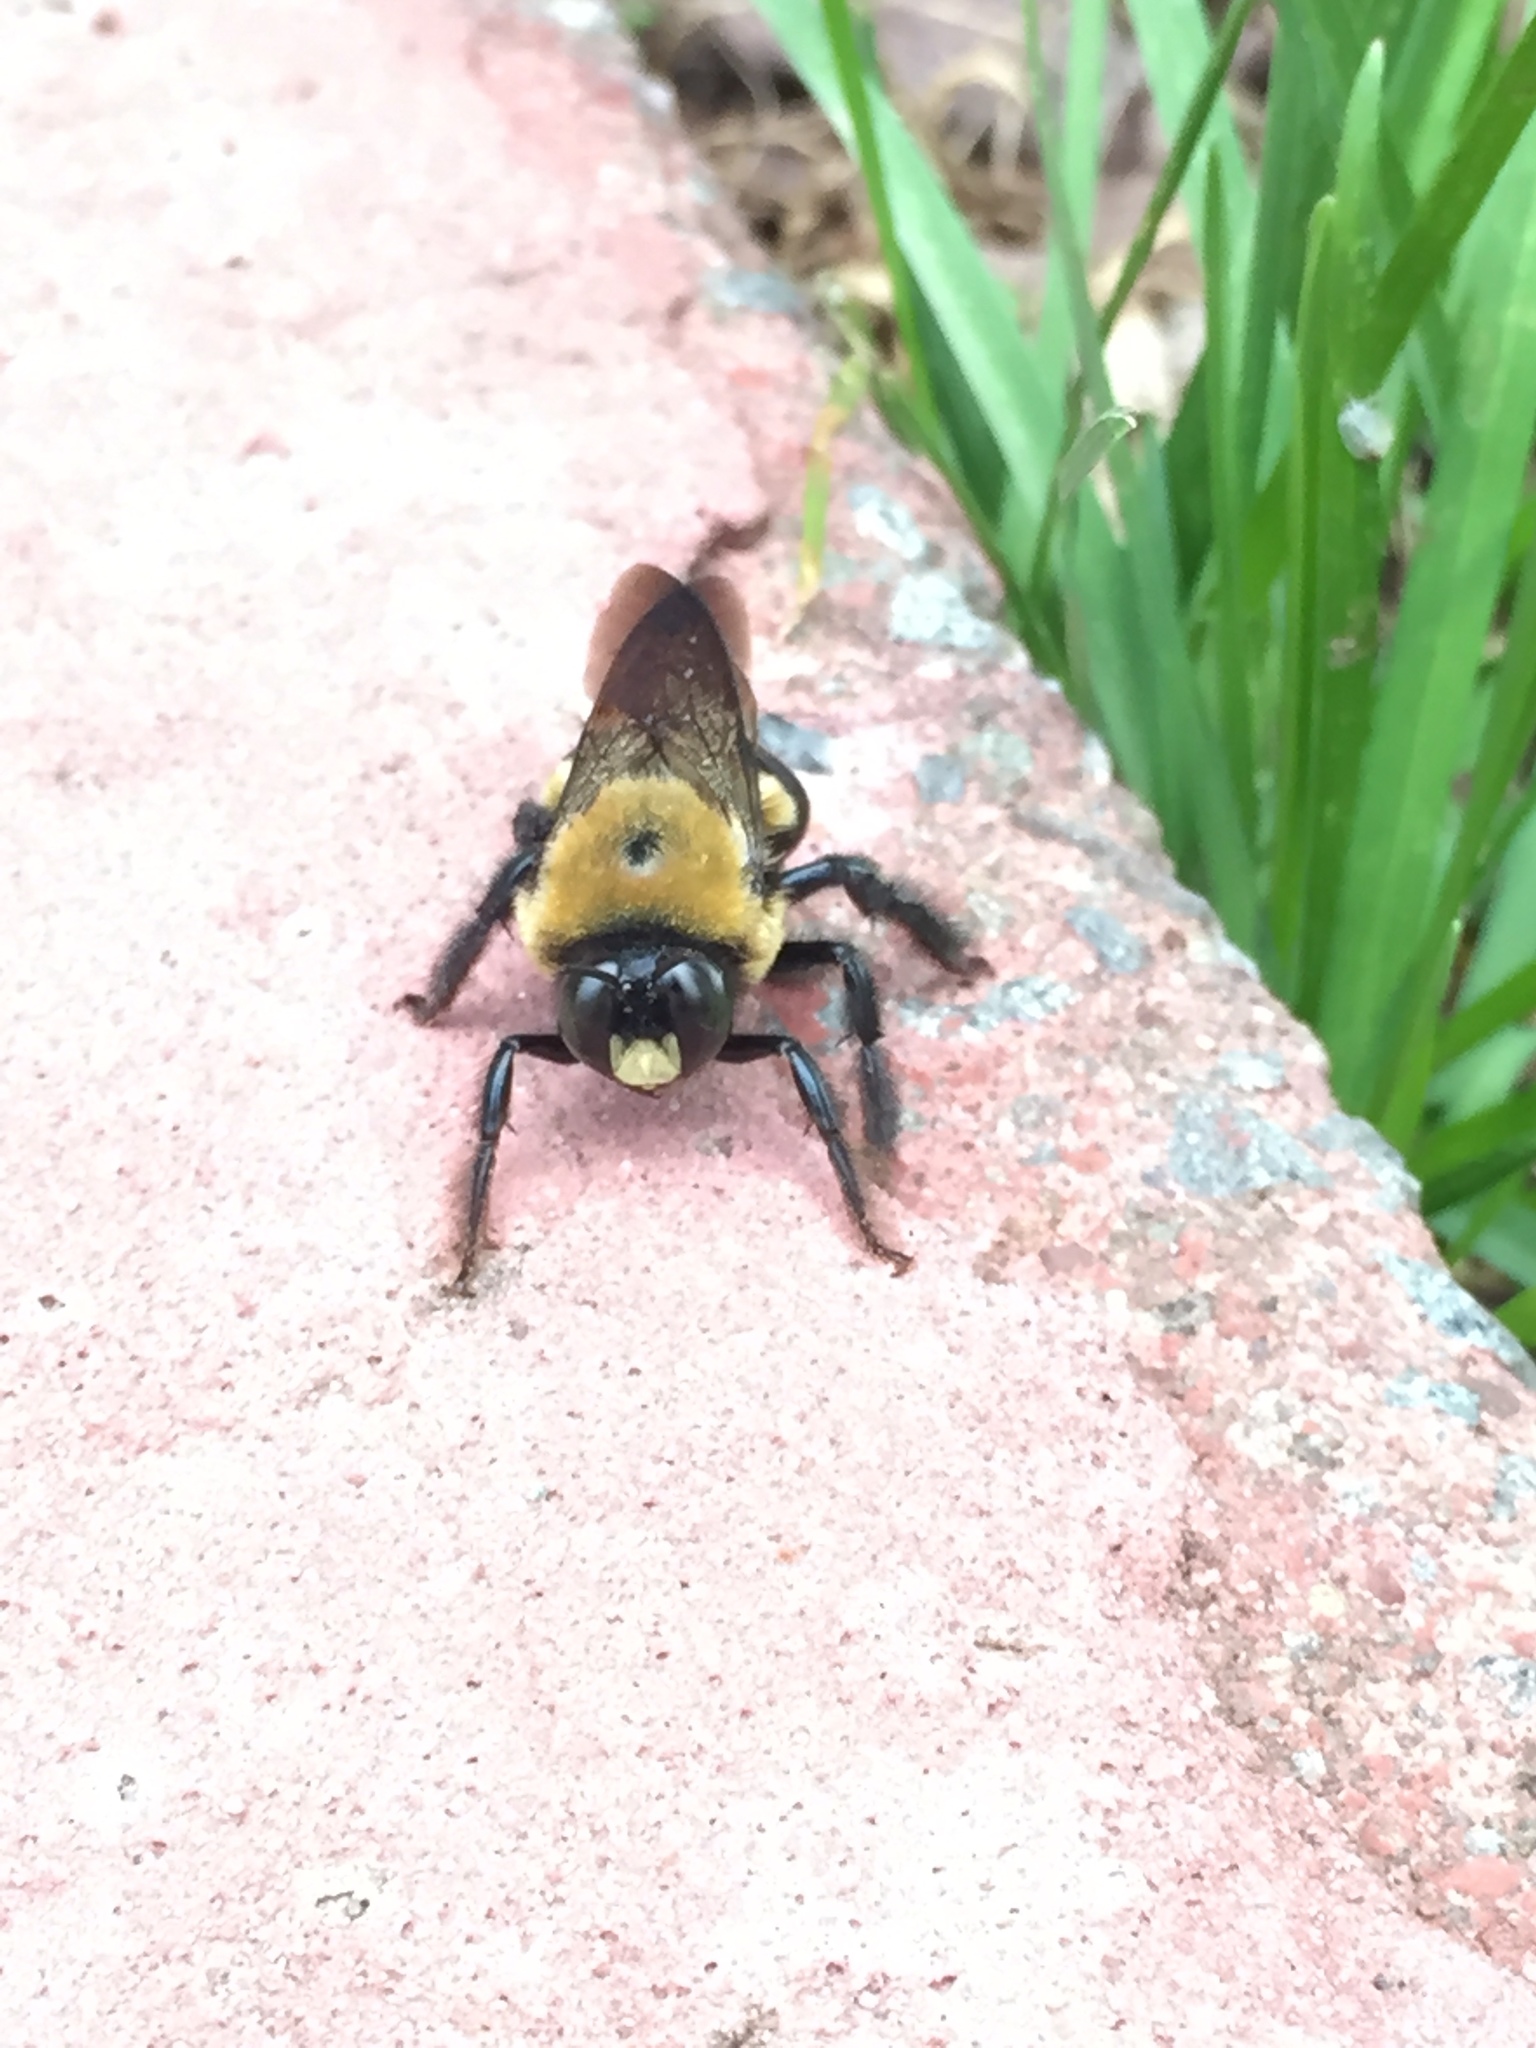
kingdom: Animalia
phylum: Arthropoda
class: Insecta
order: Hymenoptera
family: Apidae
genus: Xylocopa
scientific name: Xylocopa virginica
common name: Carpenter bee
